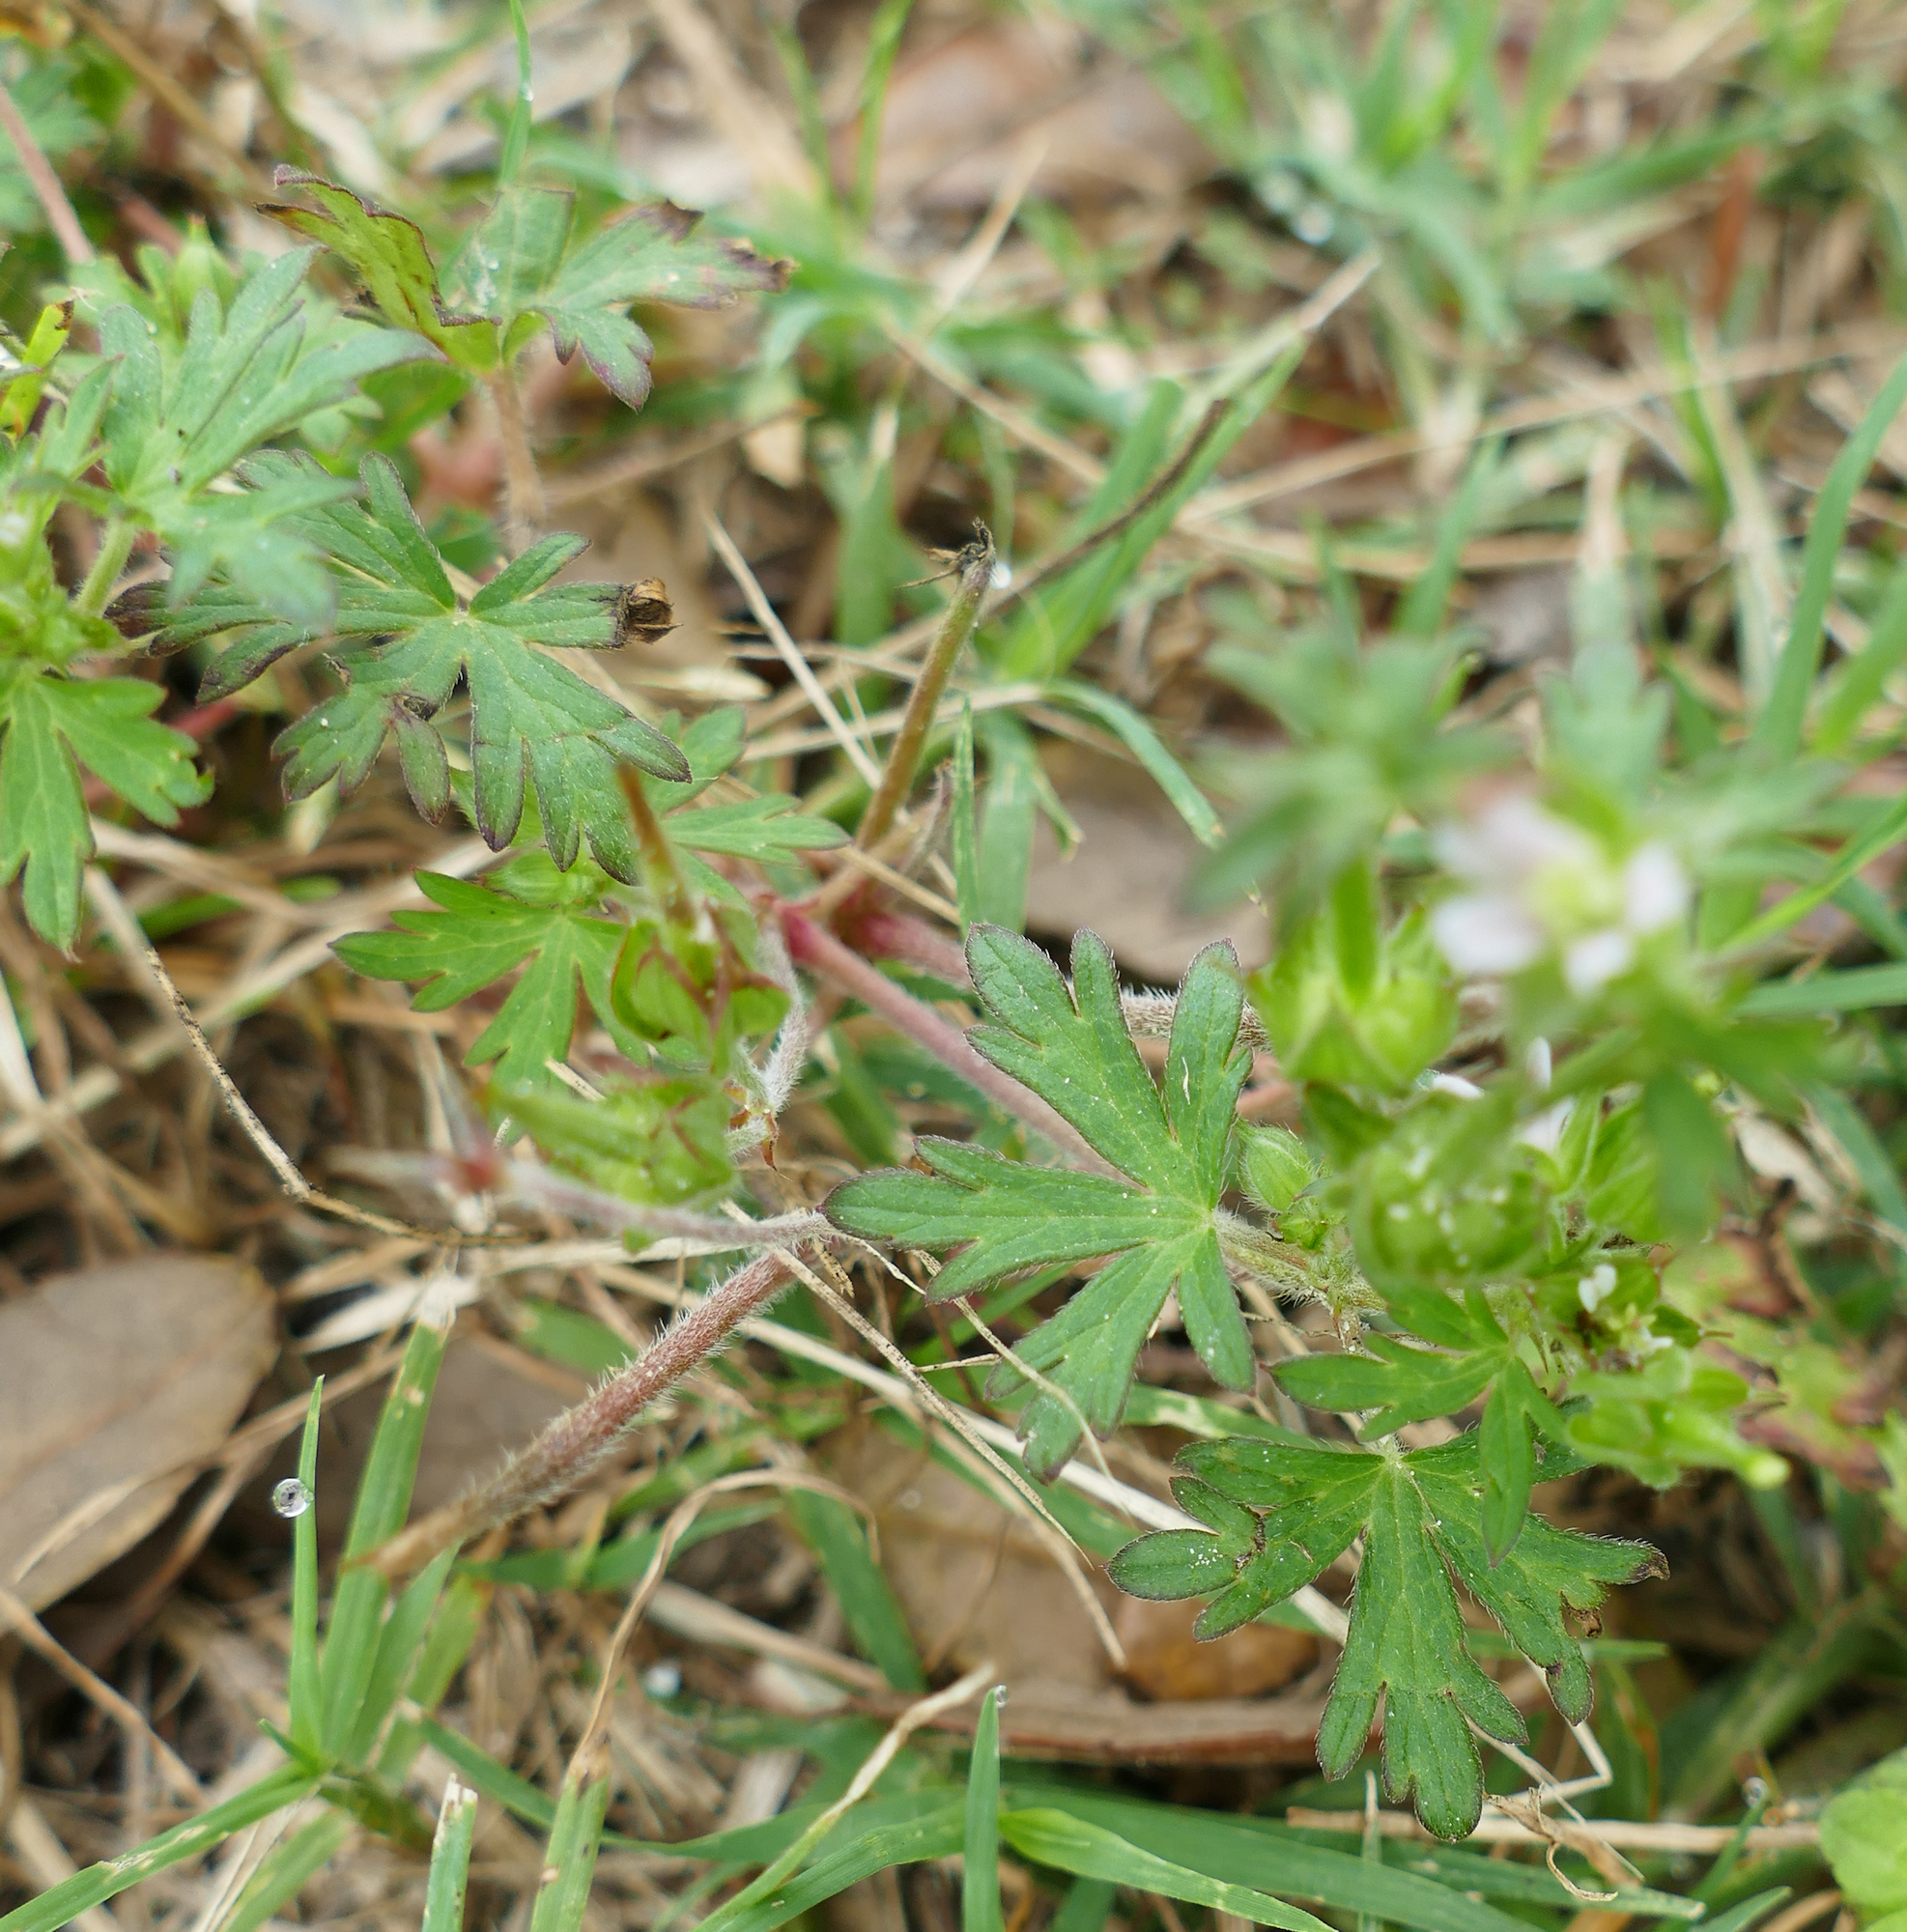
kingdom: Plantae
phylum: Tracheophyta
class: Magnoliopsida
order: Geraniales
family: Geraniaceae
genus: Geranium
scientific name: Geranium carolinianum
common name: Carolina crane's-bill
